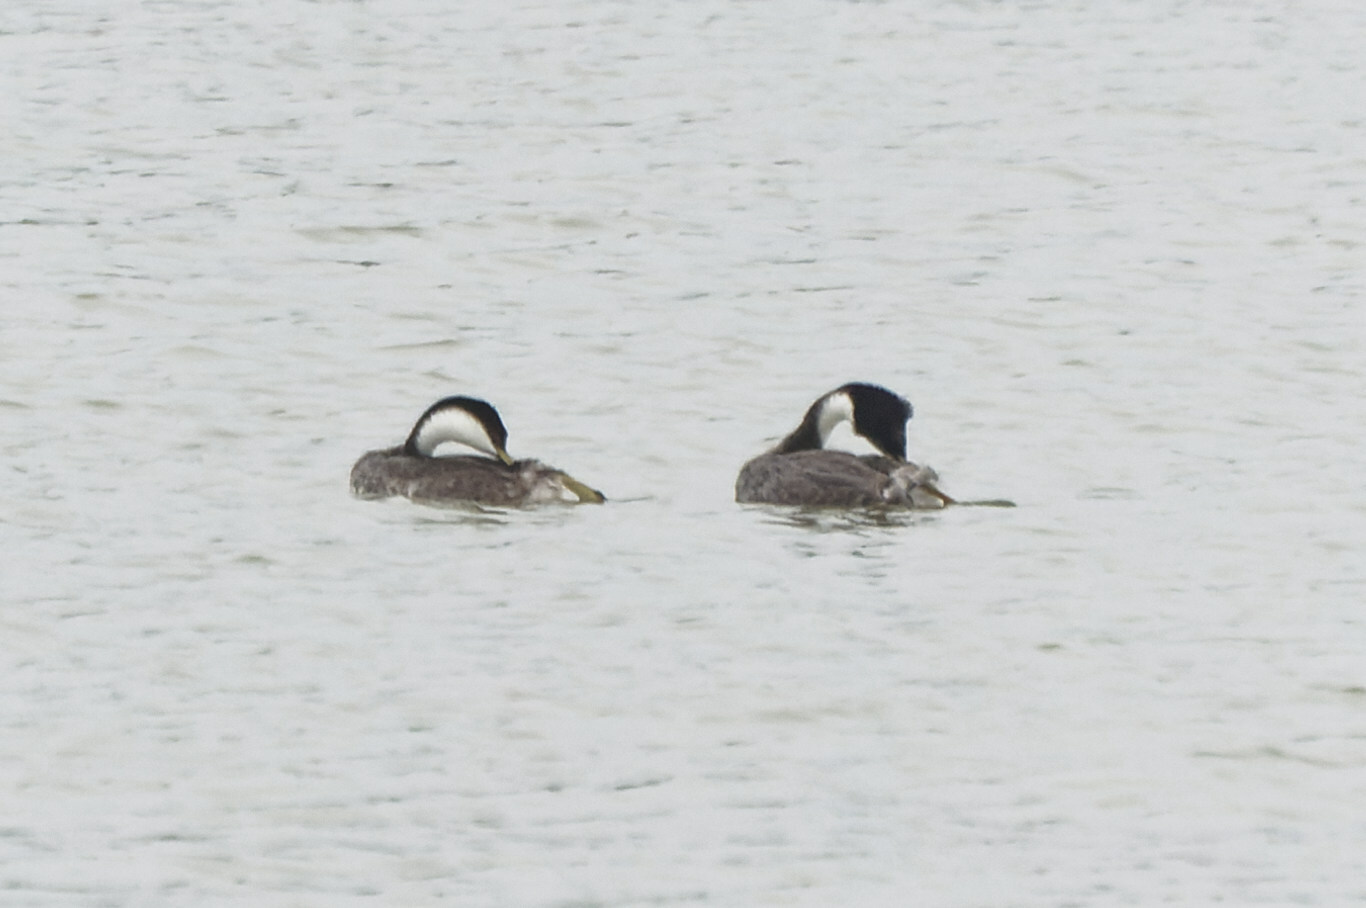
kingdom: Animalia
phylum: Chordata
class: Aves
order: Podicipediformes
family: Podicipedidae
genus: Aechmophorus
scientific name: Aechmophorus occidentalis
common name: Western grebe
